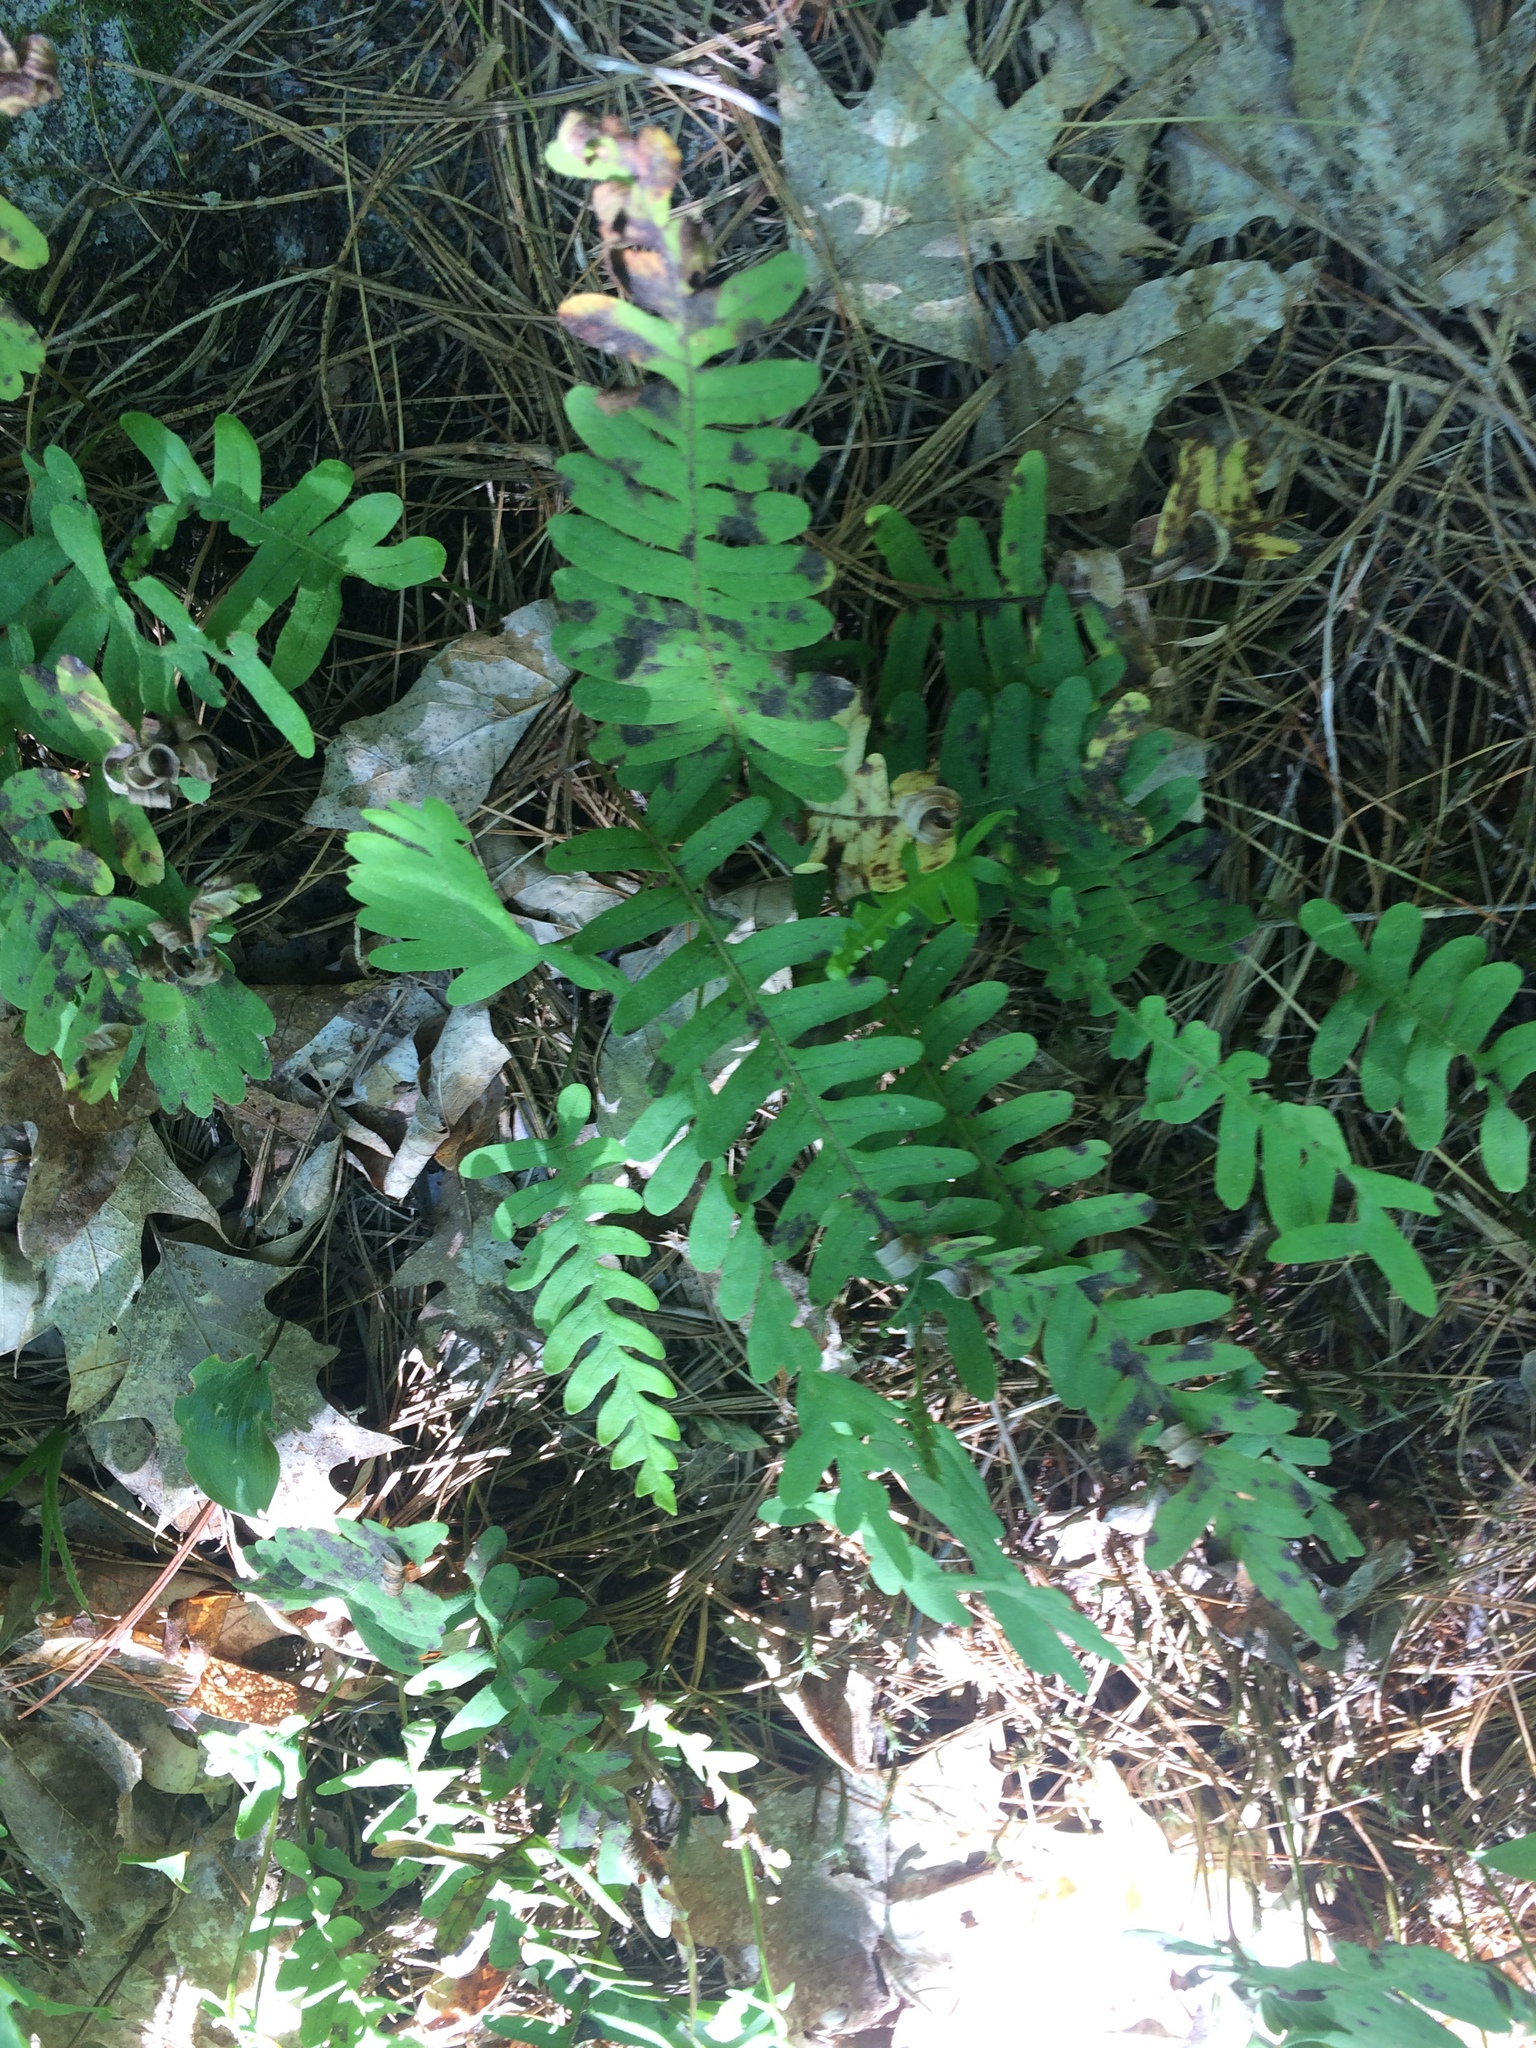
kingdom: Plantae
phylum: Tracheophyta
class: Polypodiopsida
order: Polypodiales
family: Polypodiaceae
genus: Polypodium
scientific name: Polypodium virginianum
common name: American wall fern
